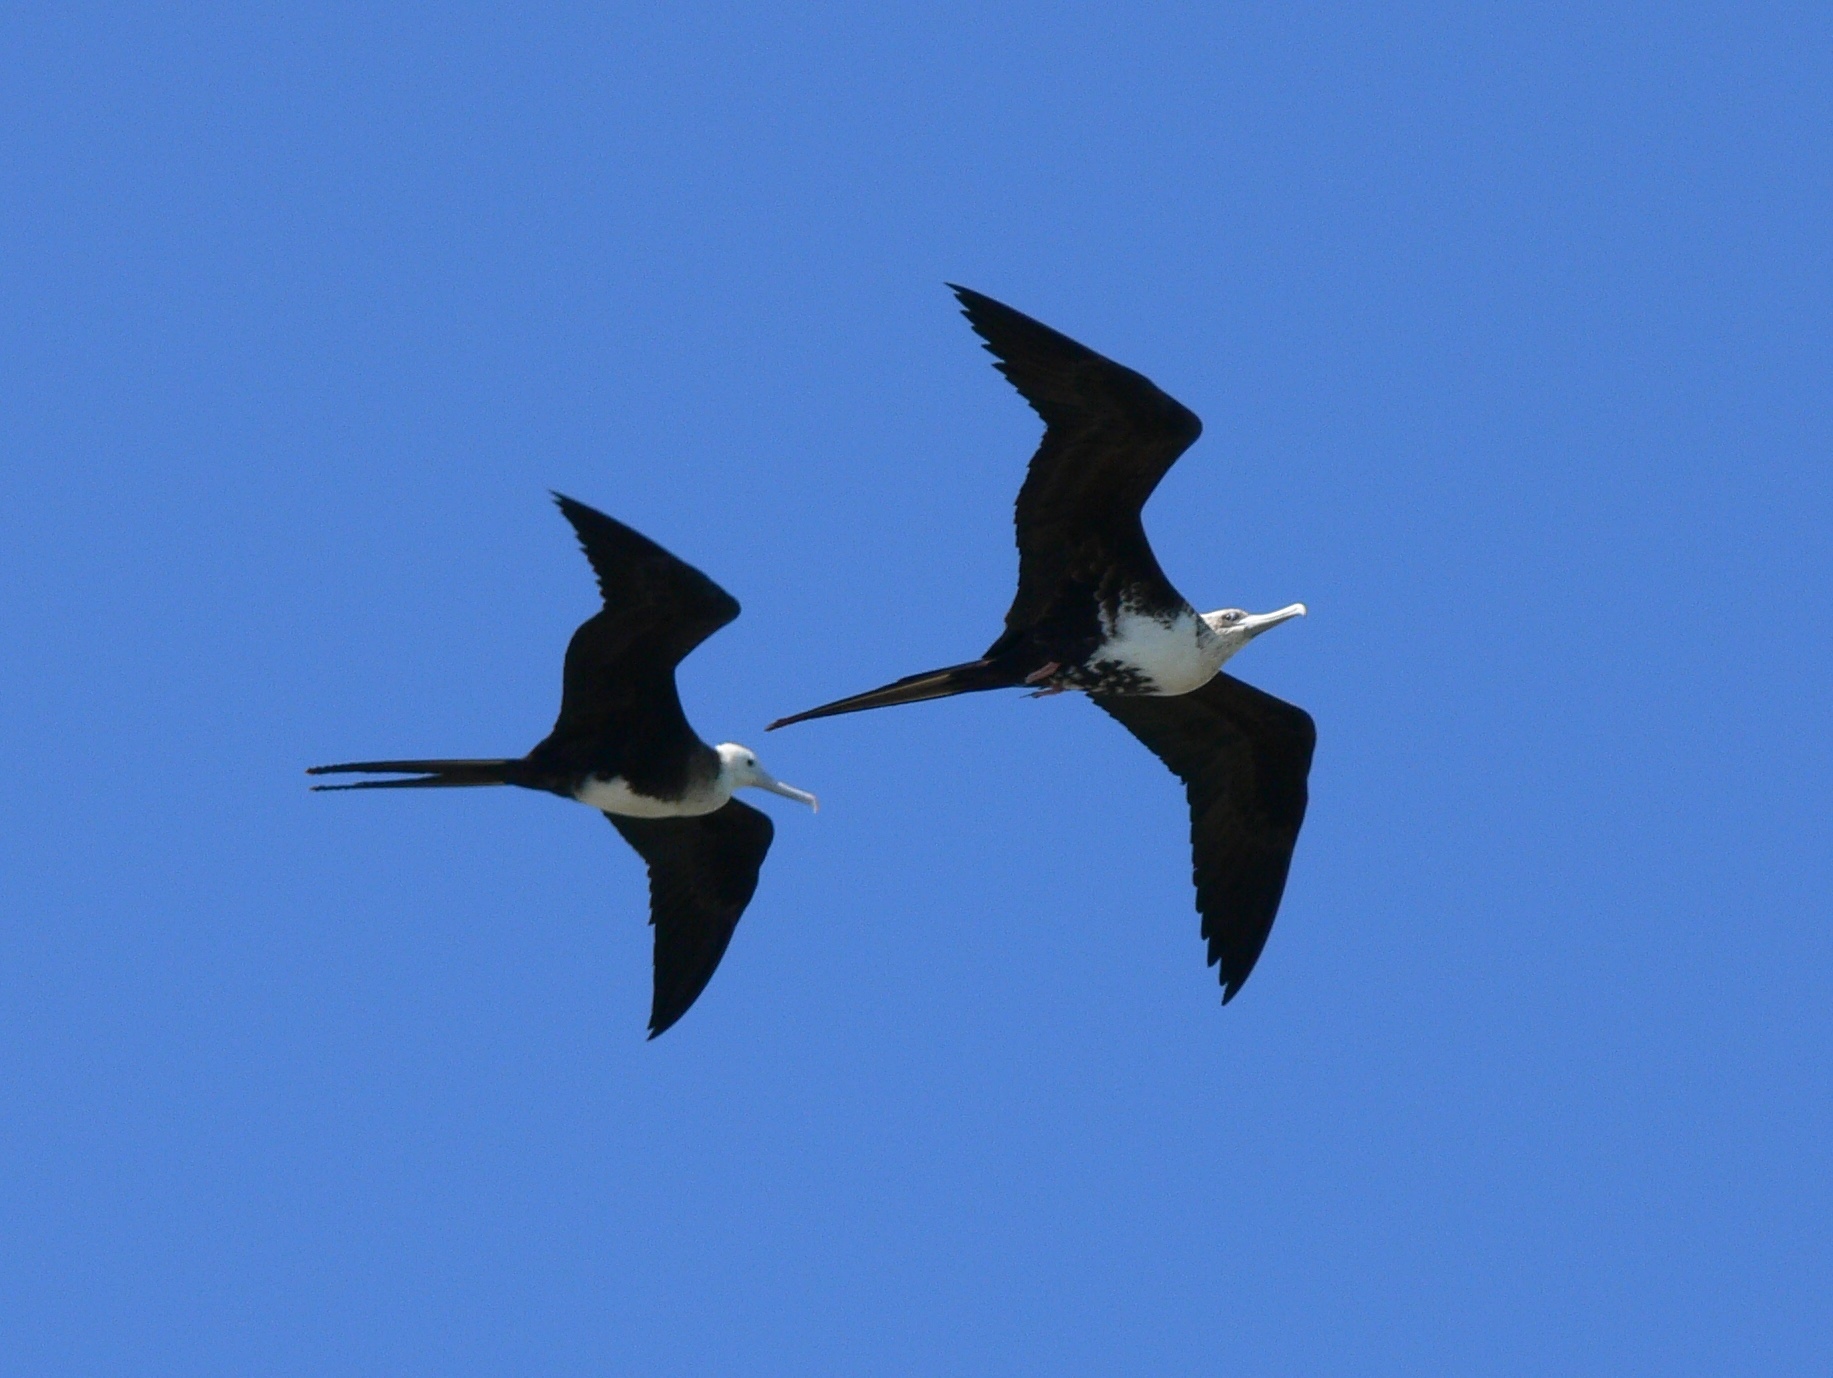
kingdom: Animalia
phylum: Chordata
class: Aves
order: Suliformes
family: Fregatidae
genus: Fregata
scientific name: Fregata magnificens
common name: Magnificent frigatebird
